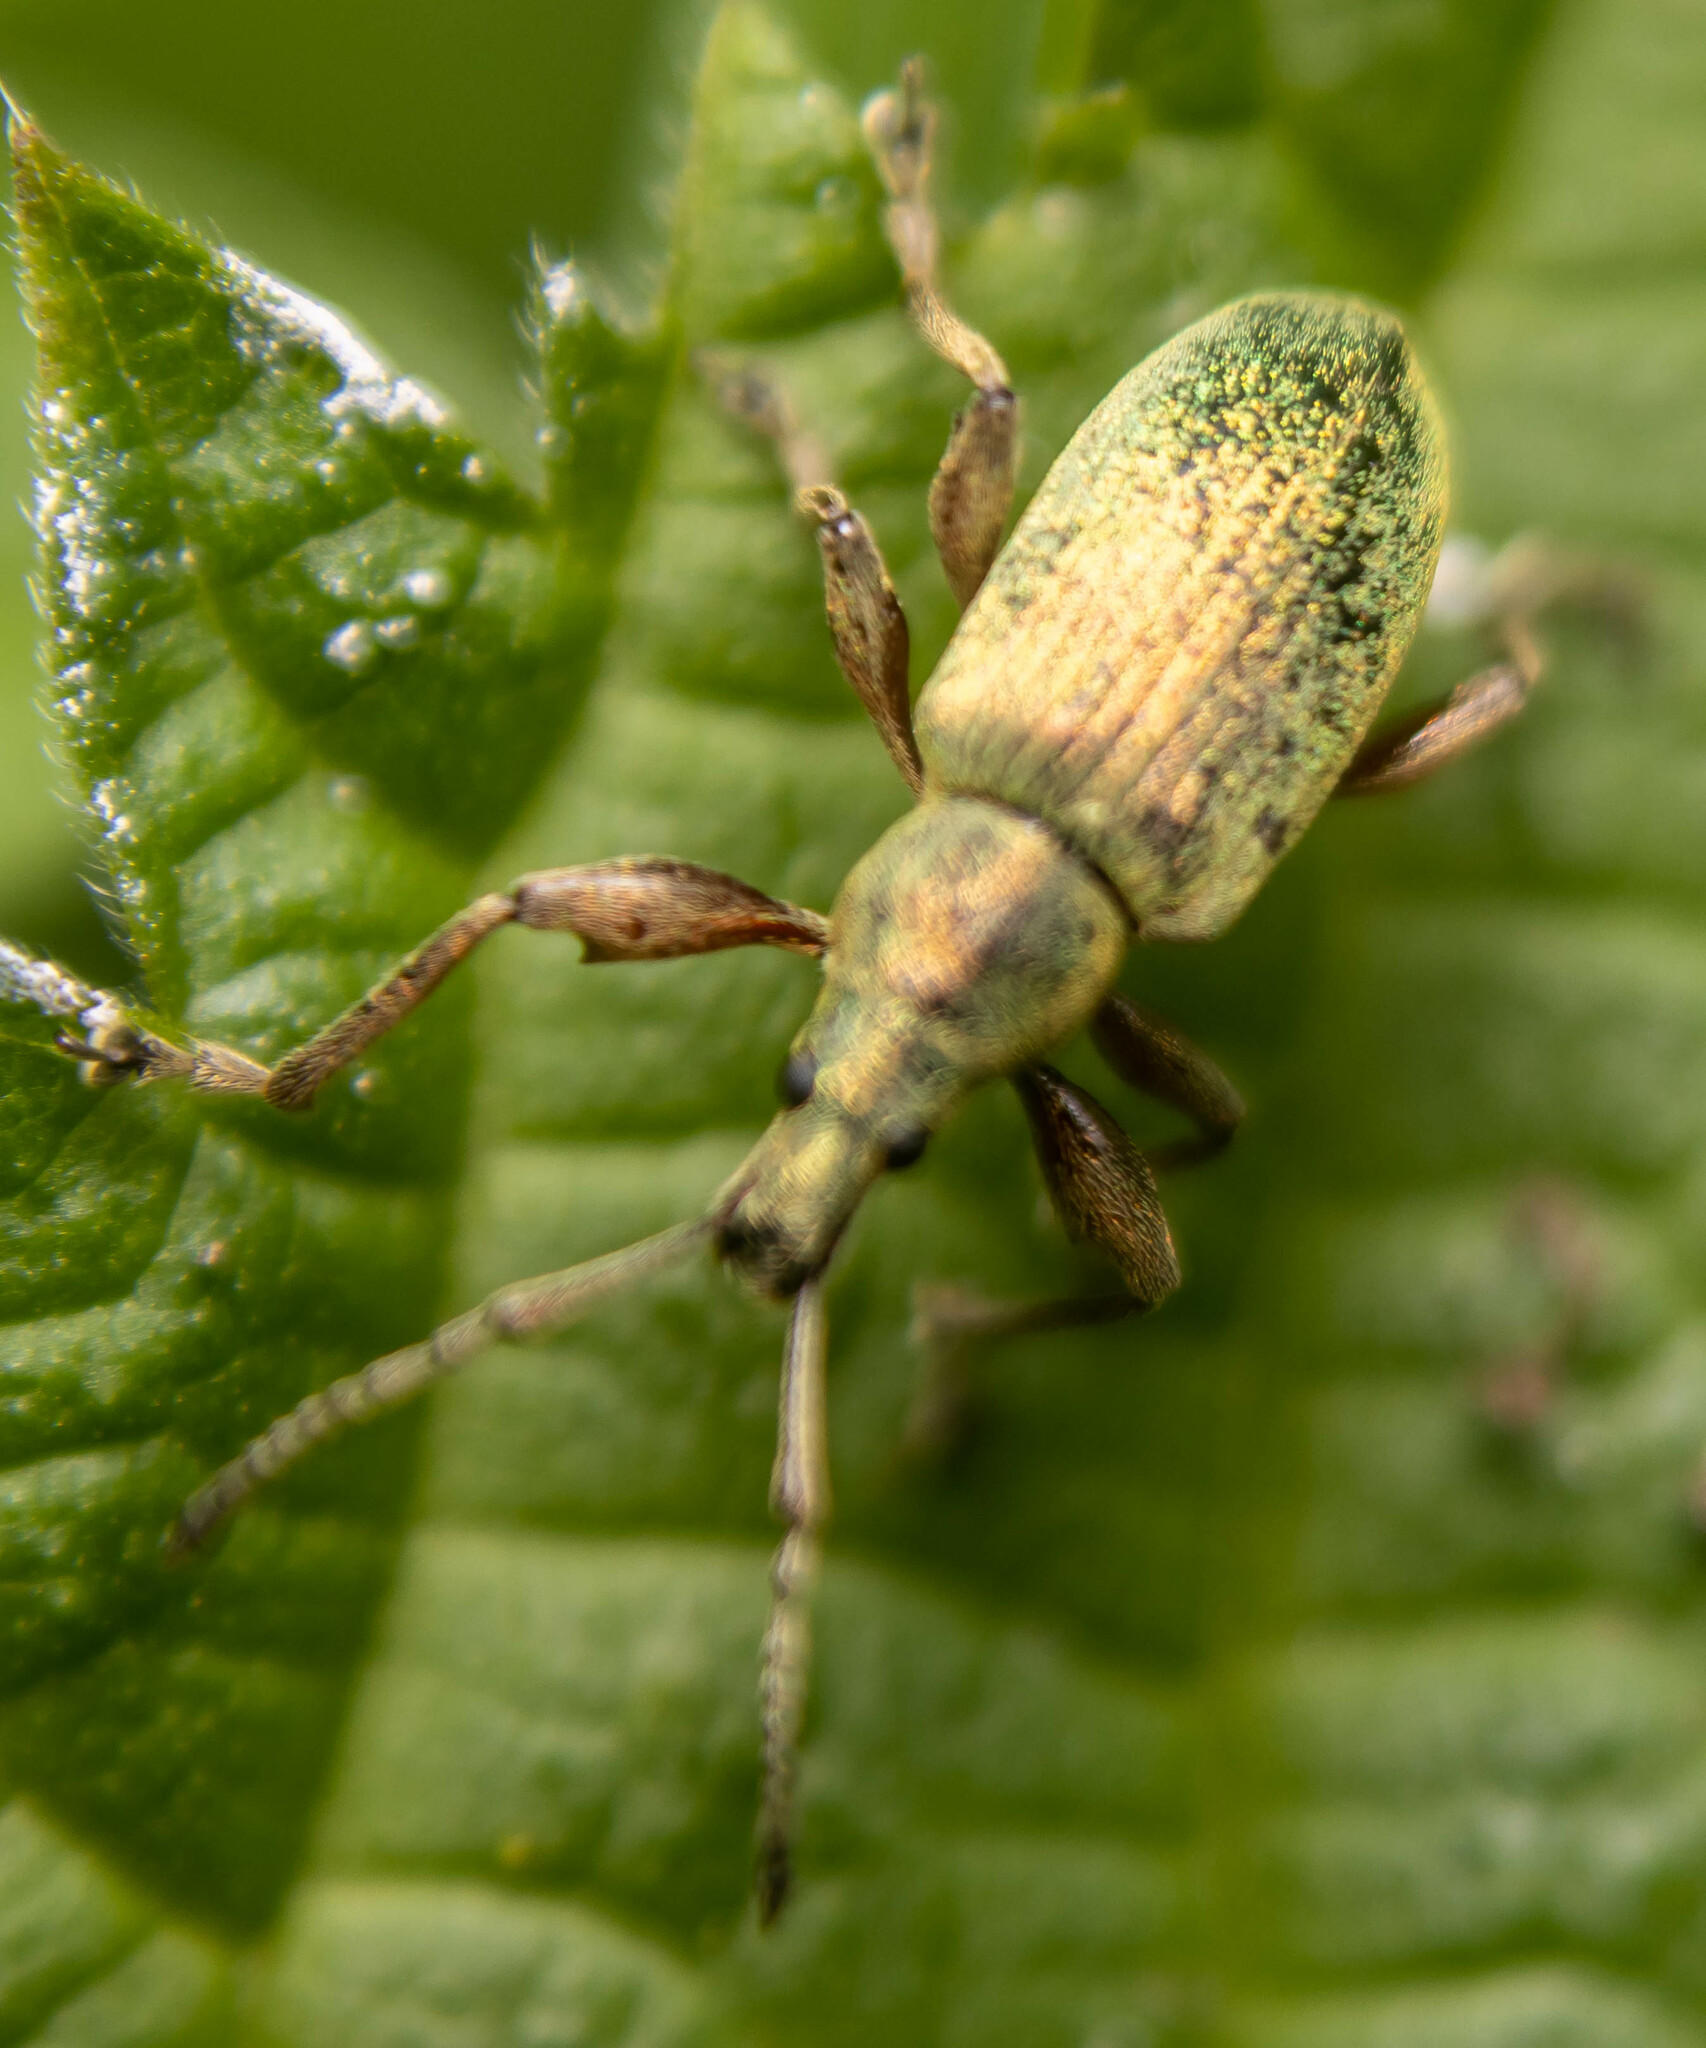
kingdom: Animalia
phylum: Arthropoda
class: Insecta
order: Coleoptera
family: Curculionidae
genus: Phyllobius
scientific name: Phyllobius pomaceus
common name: Green nettle weevil
